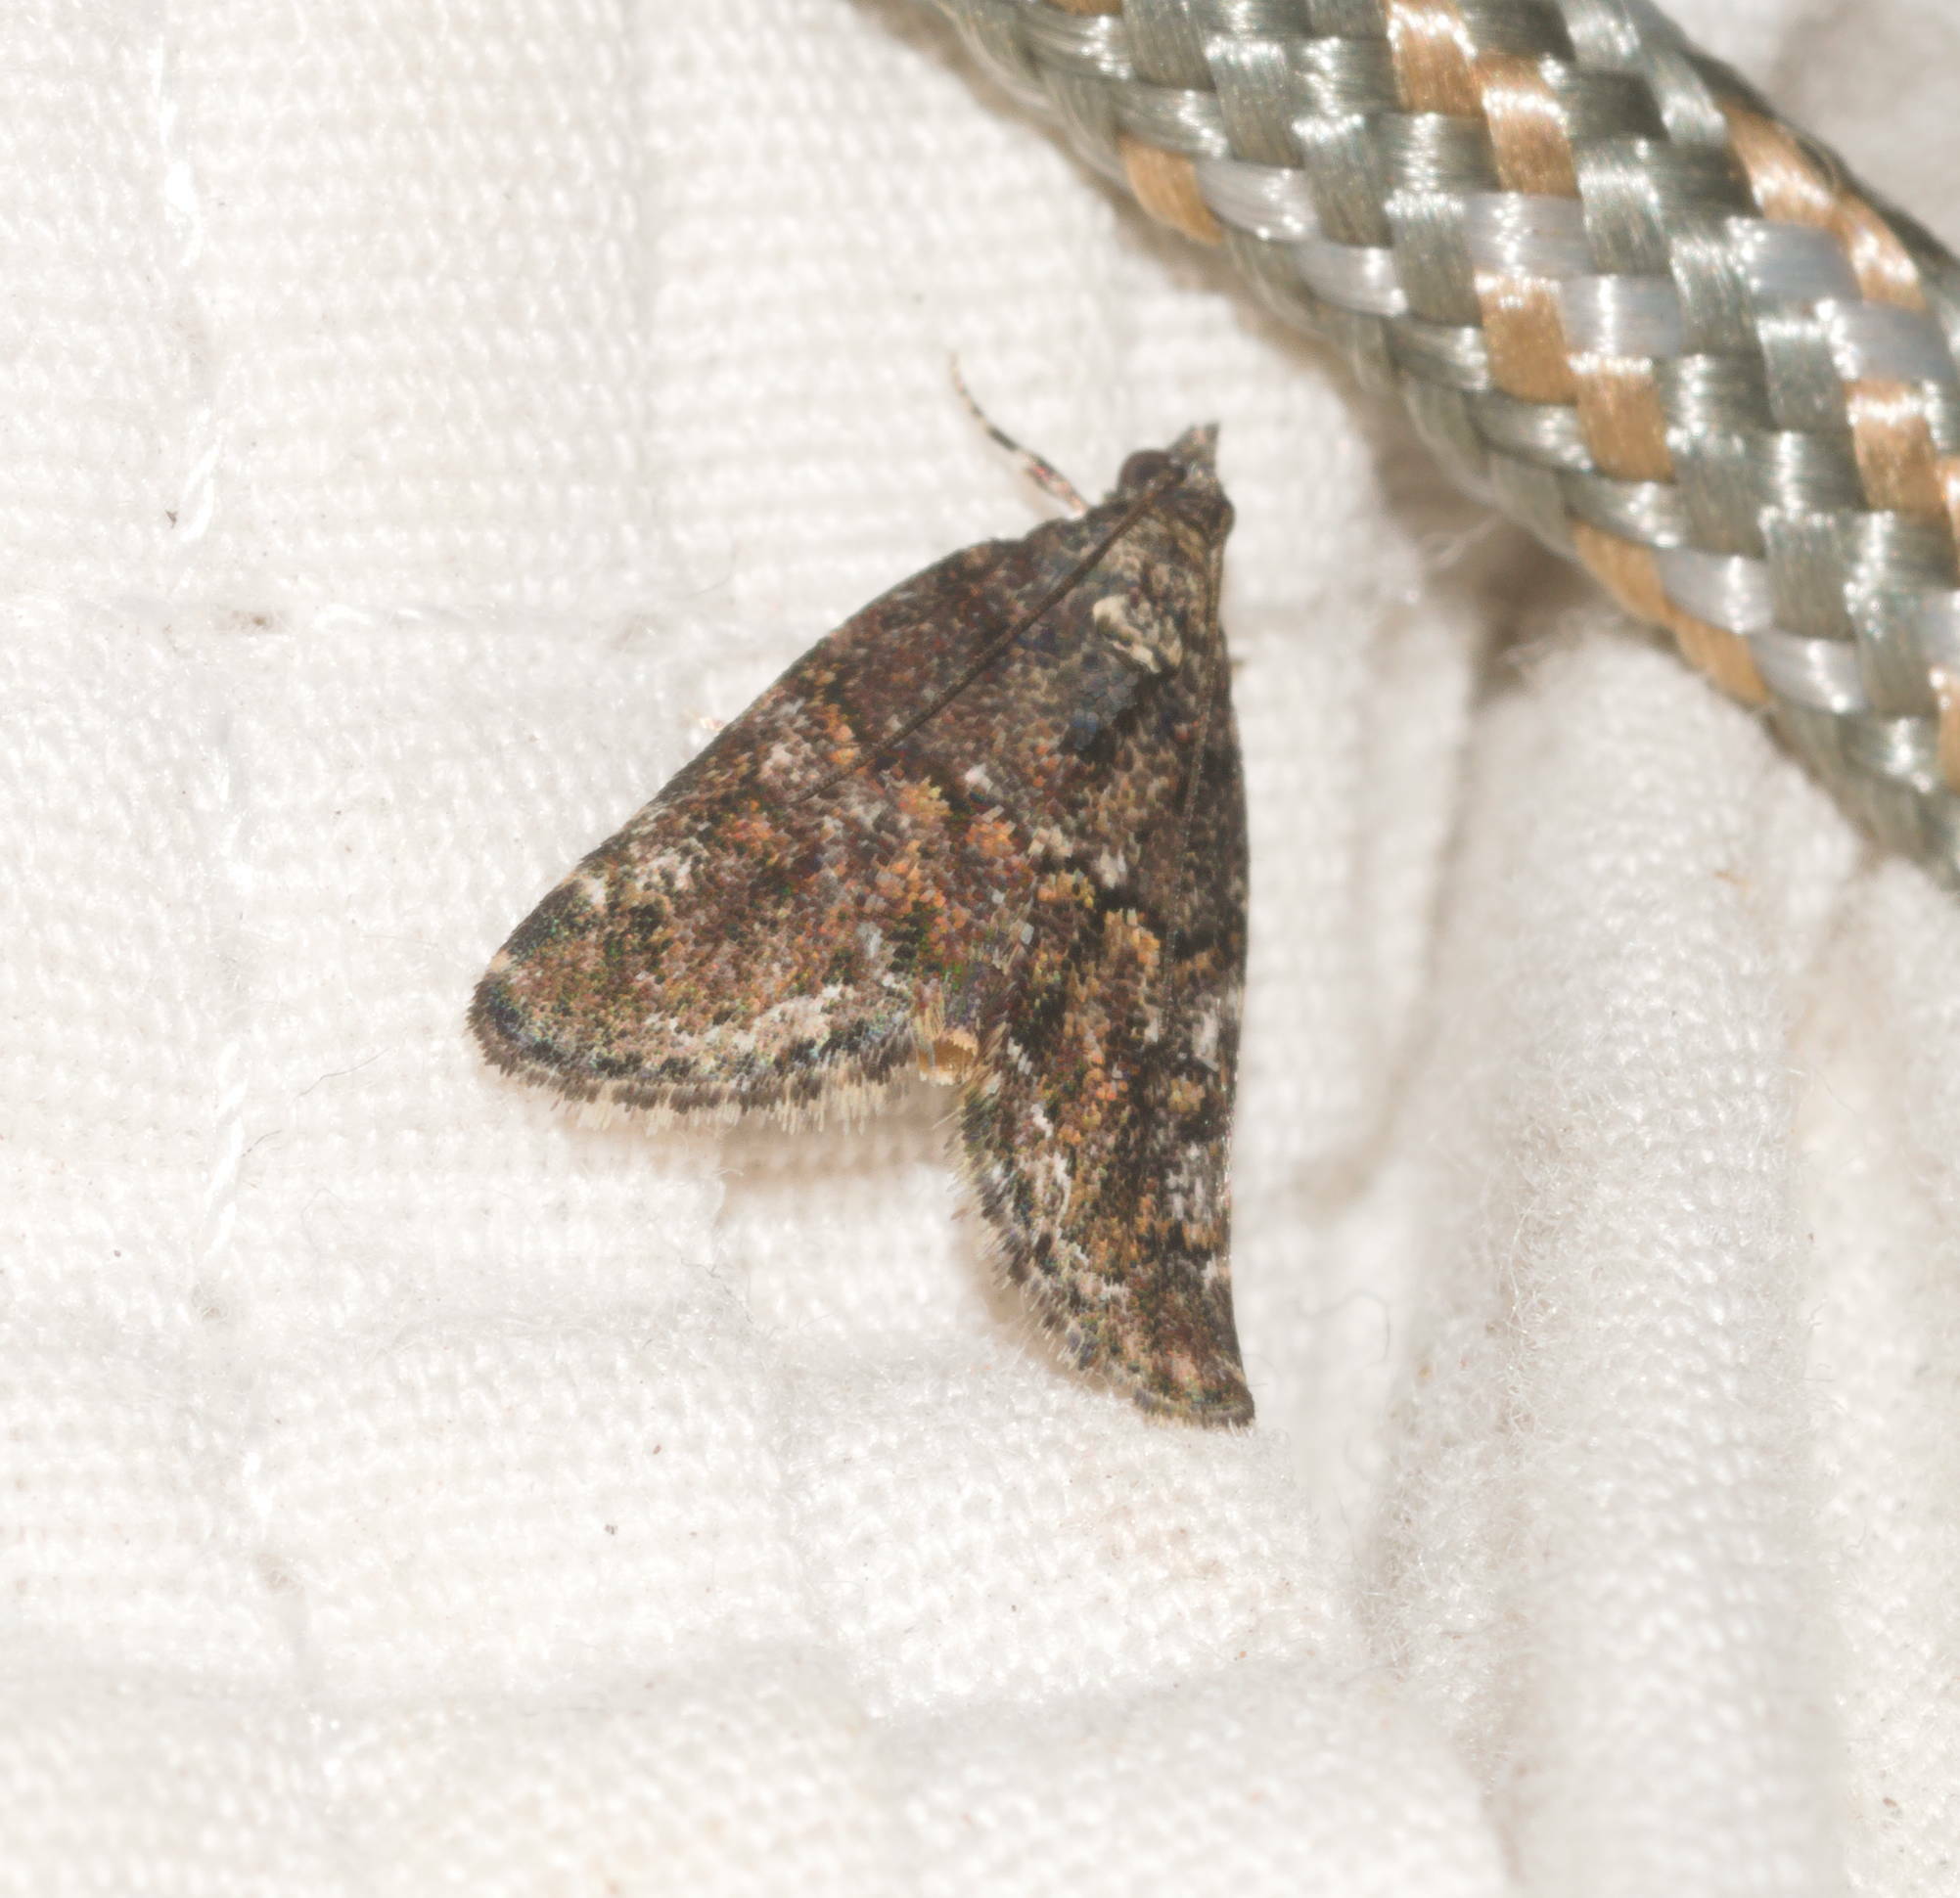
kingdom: Animalia
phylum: Arthropoda
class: Insecta
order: Lepidoptera
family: Crambidae
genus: Mestolobes
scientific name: Mestolobes abnormis
